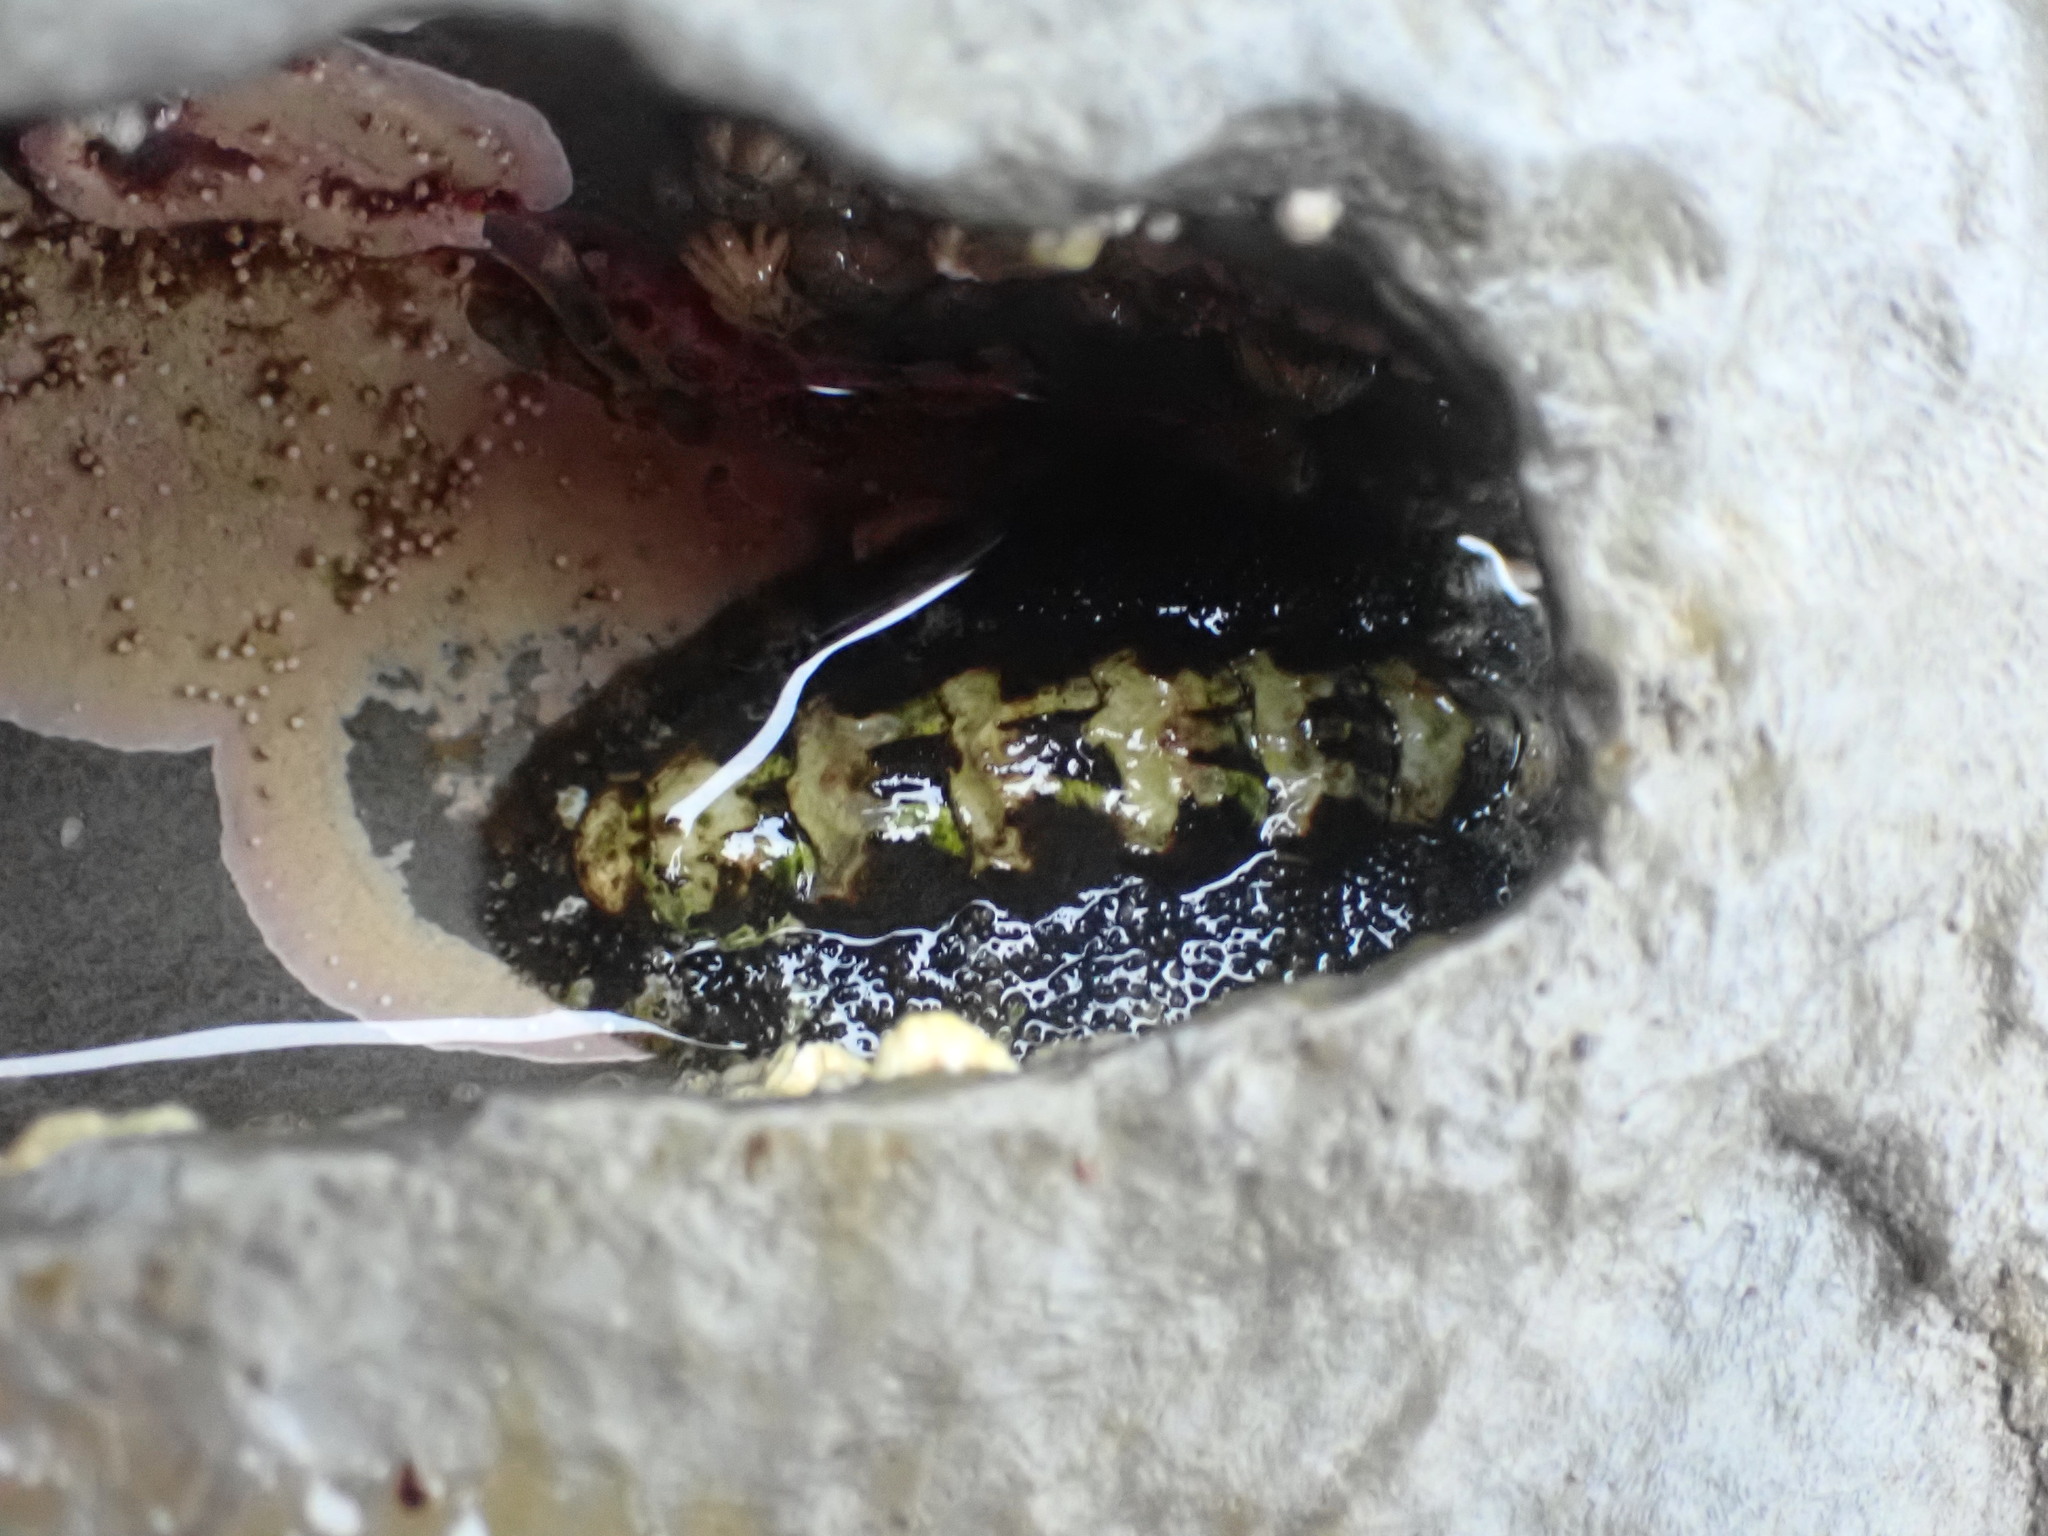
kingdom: Animalia
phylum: Mollusca
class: Polyplacophora
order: Chitonida
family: Tonicellidae
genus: Nuttallina
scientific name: Nuttallina californica
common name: California nuttall chiton
